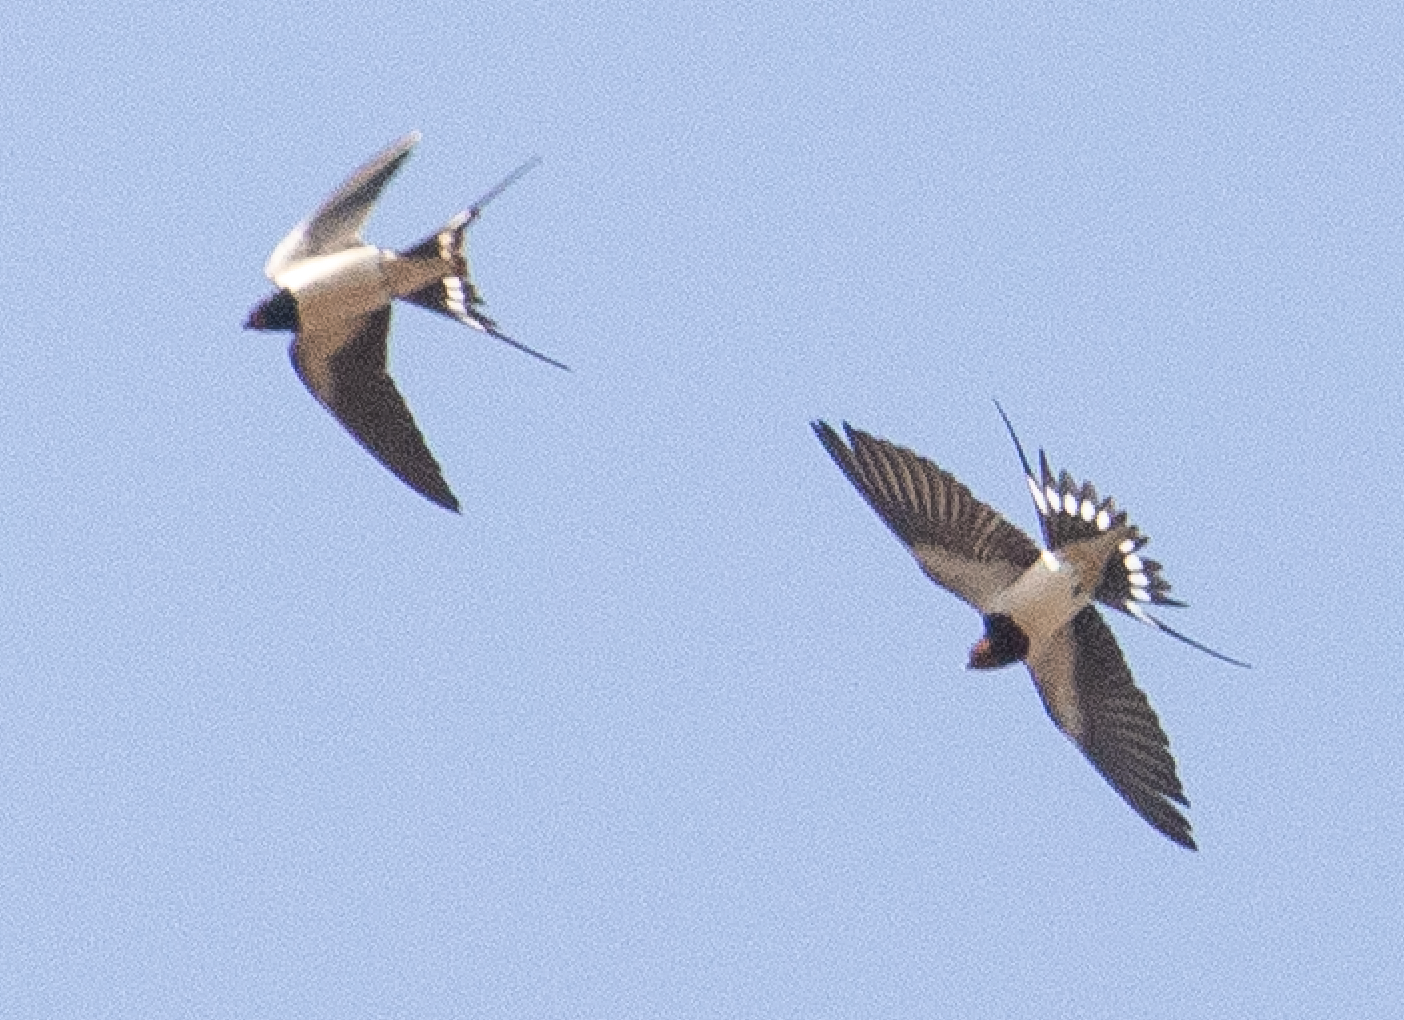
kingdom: Animalia
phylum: Chordata
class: Aves
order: Passeriformes
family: Hirundinidae
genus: Hirundo
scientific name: Hirundo rustica
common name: Barn swallow
